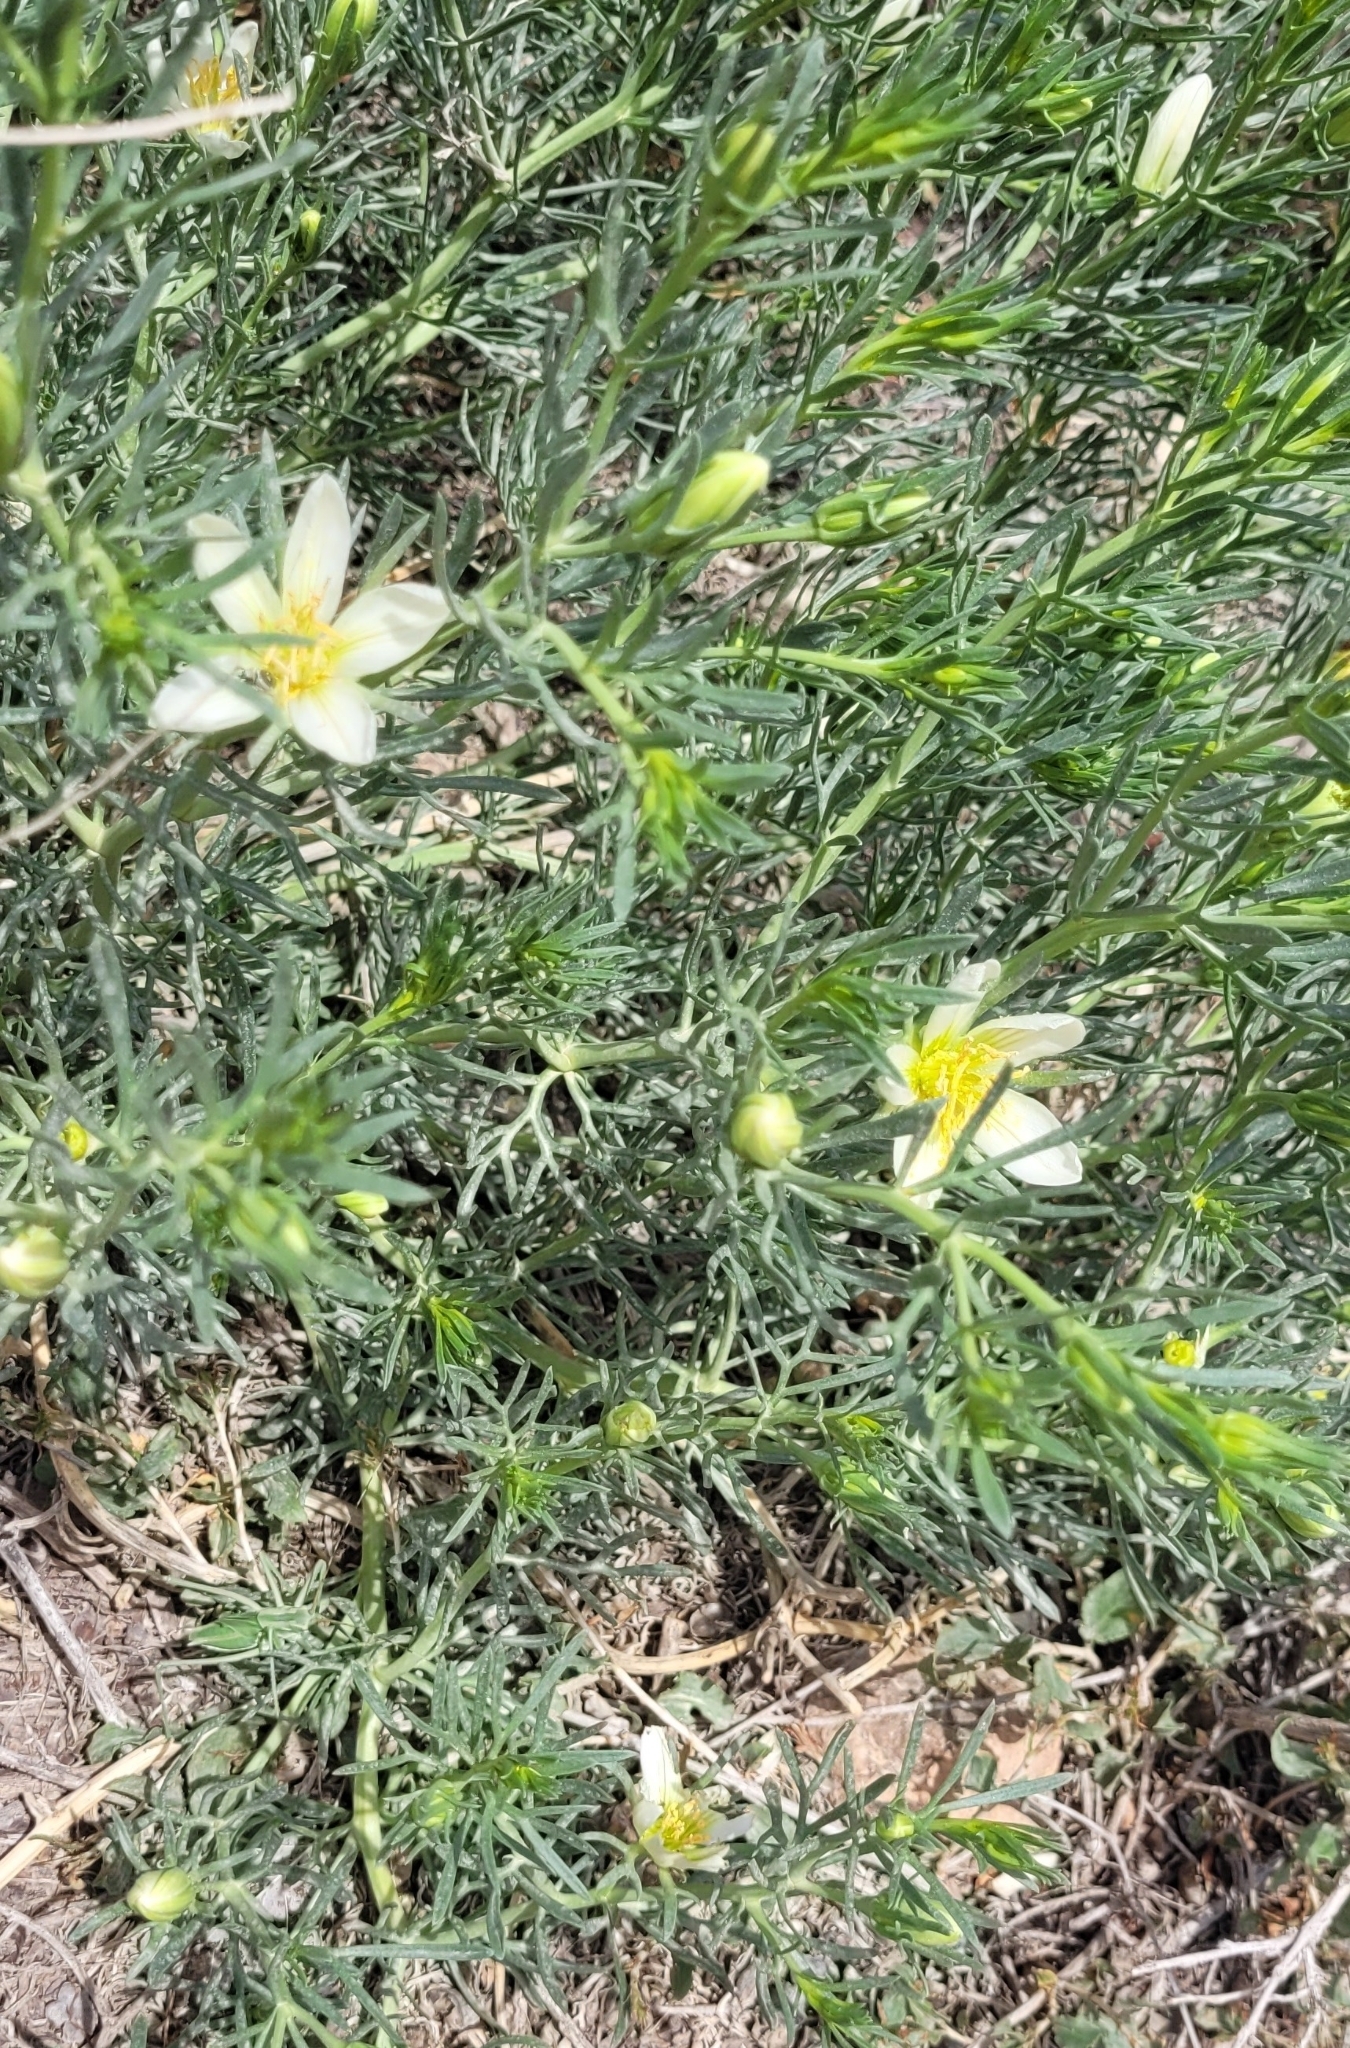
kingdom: Plantae
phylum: Tracheophyta
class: Magnoliopsida
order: Sapindales
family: Tetradiclidaceae
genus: Peganum
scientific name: Peganum harmala
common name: Harmal peganum
